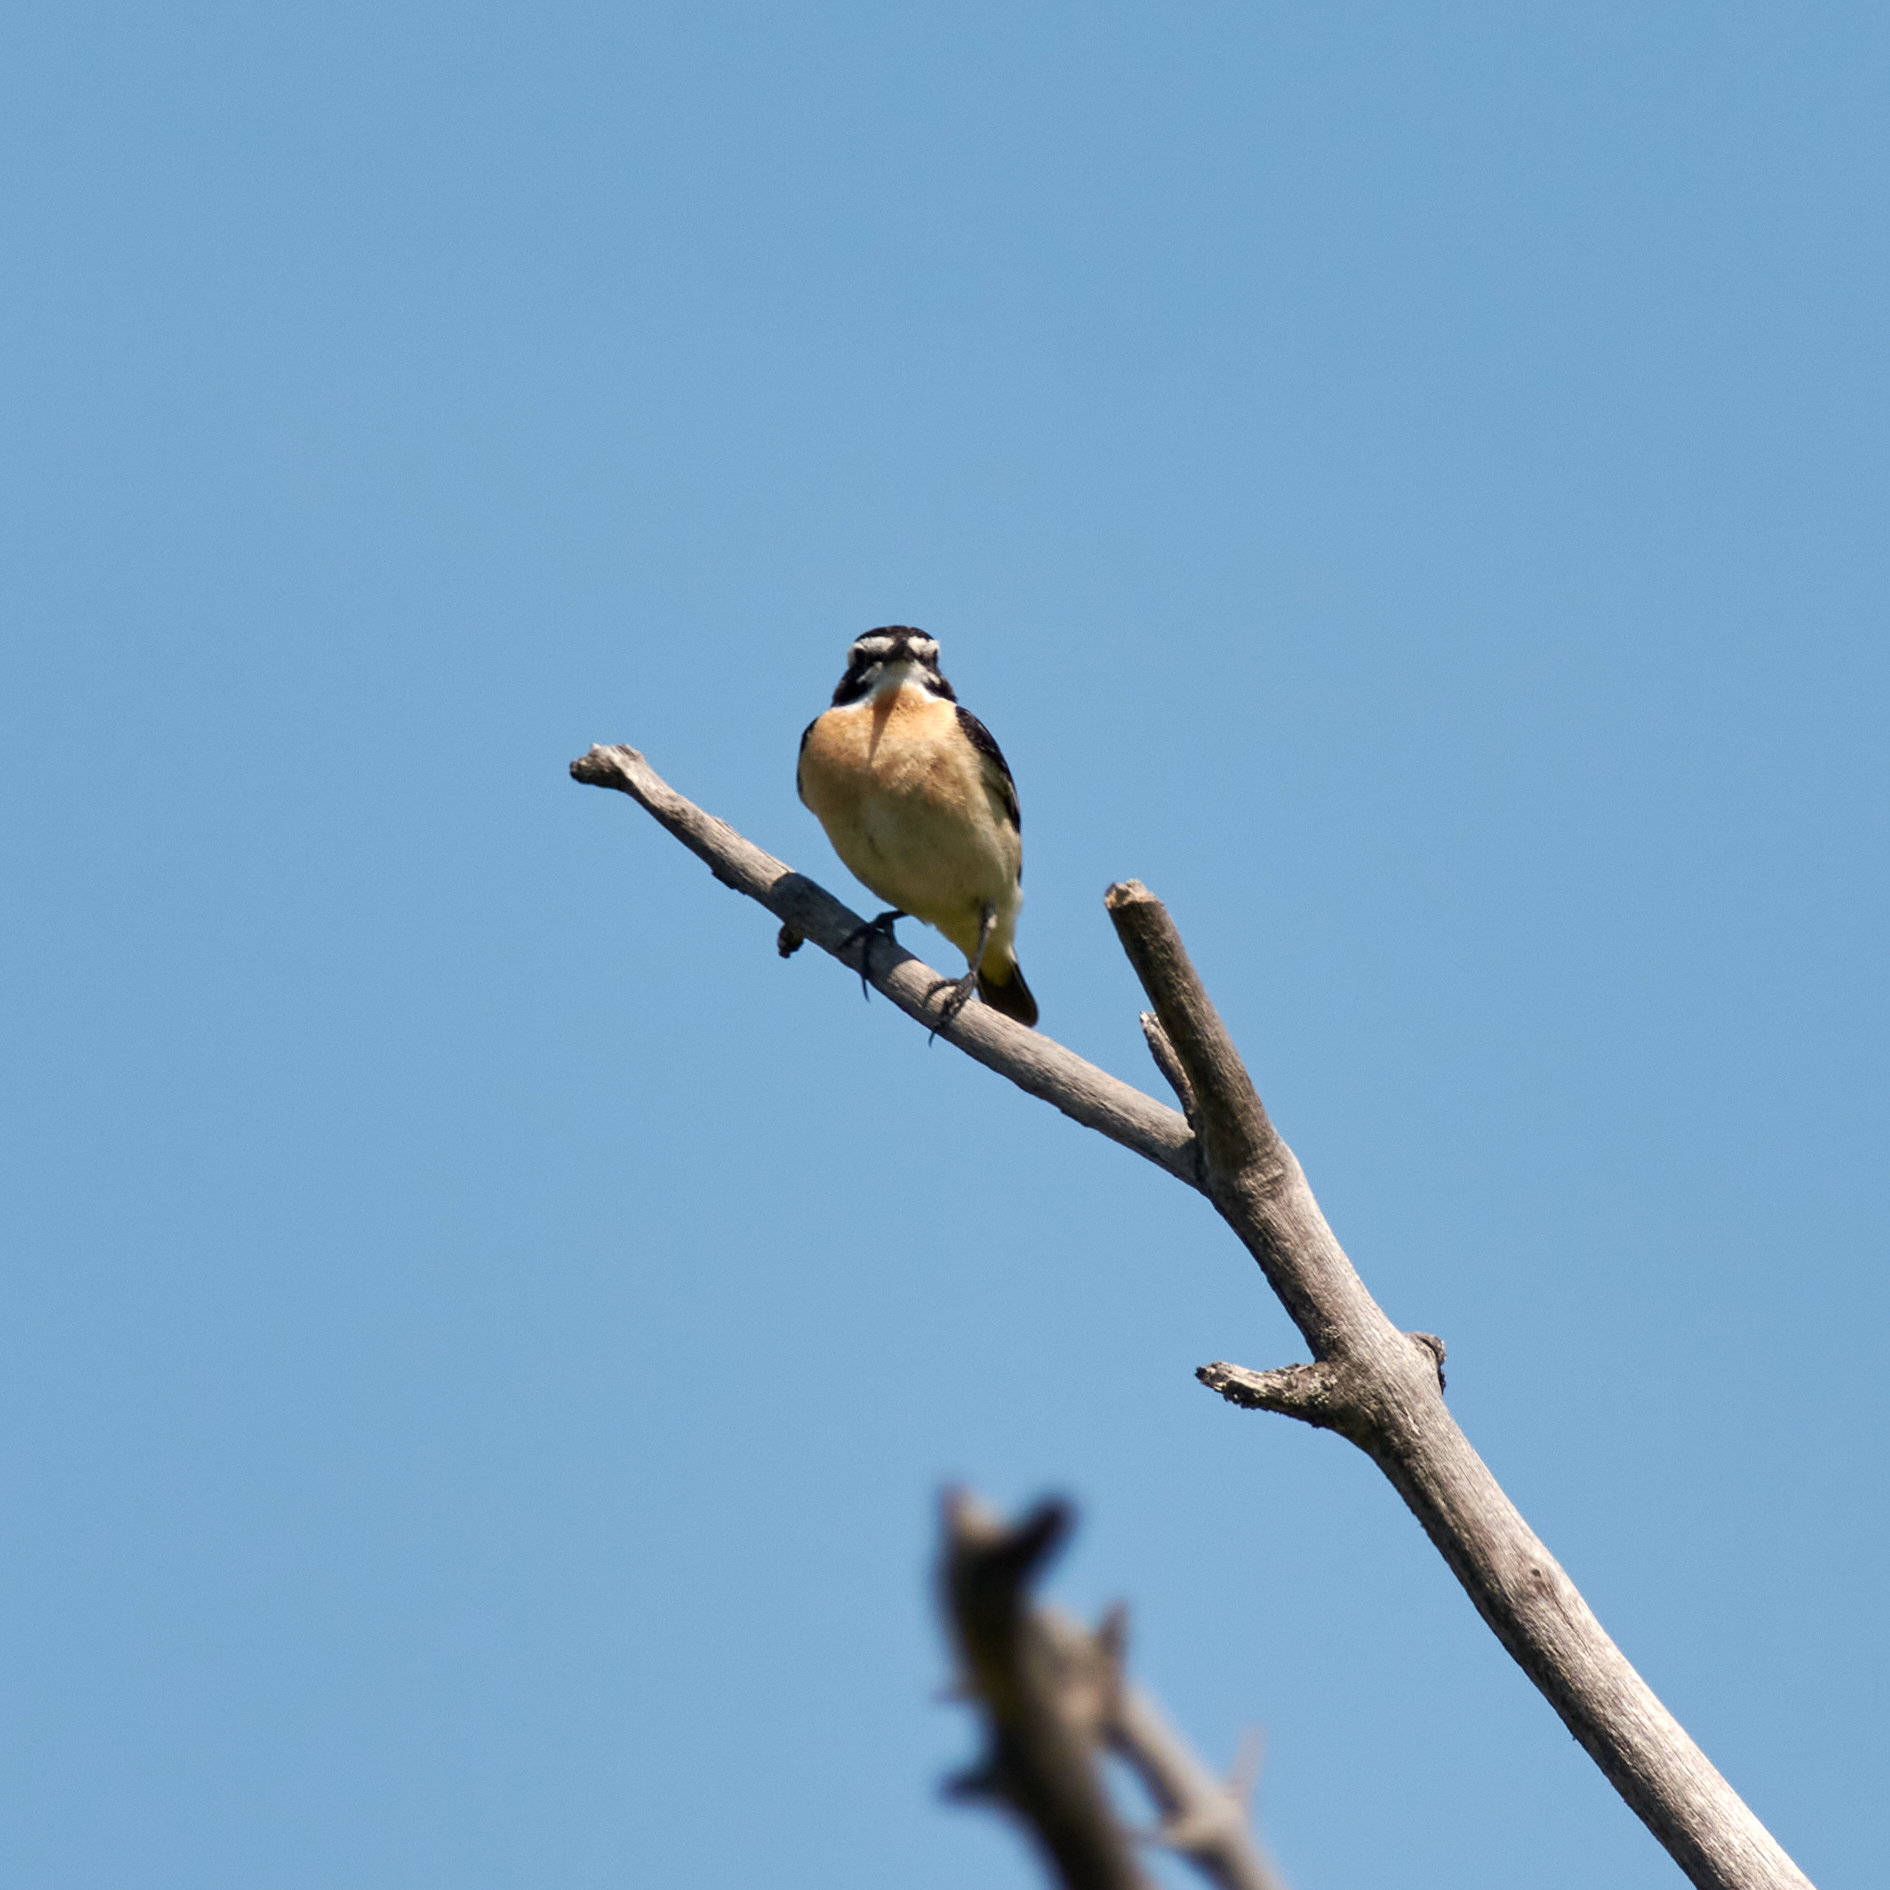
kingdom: Animalia
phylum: Chordata
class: Aves
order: Passeriformes
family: Muscicapidae
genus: Saxicola
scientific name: Saxicola rubetra
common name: Whinchat
